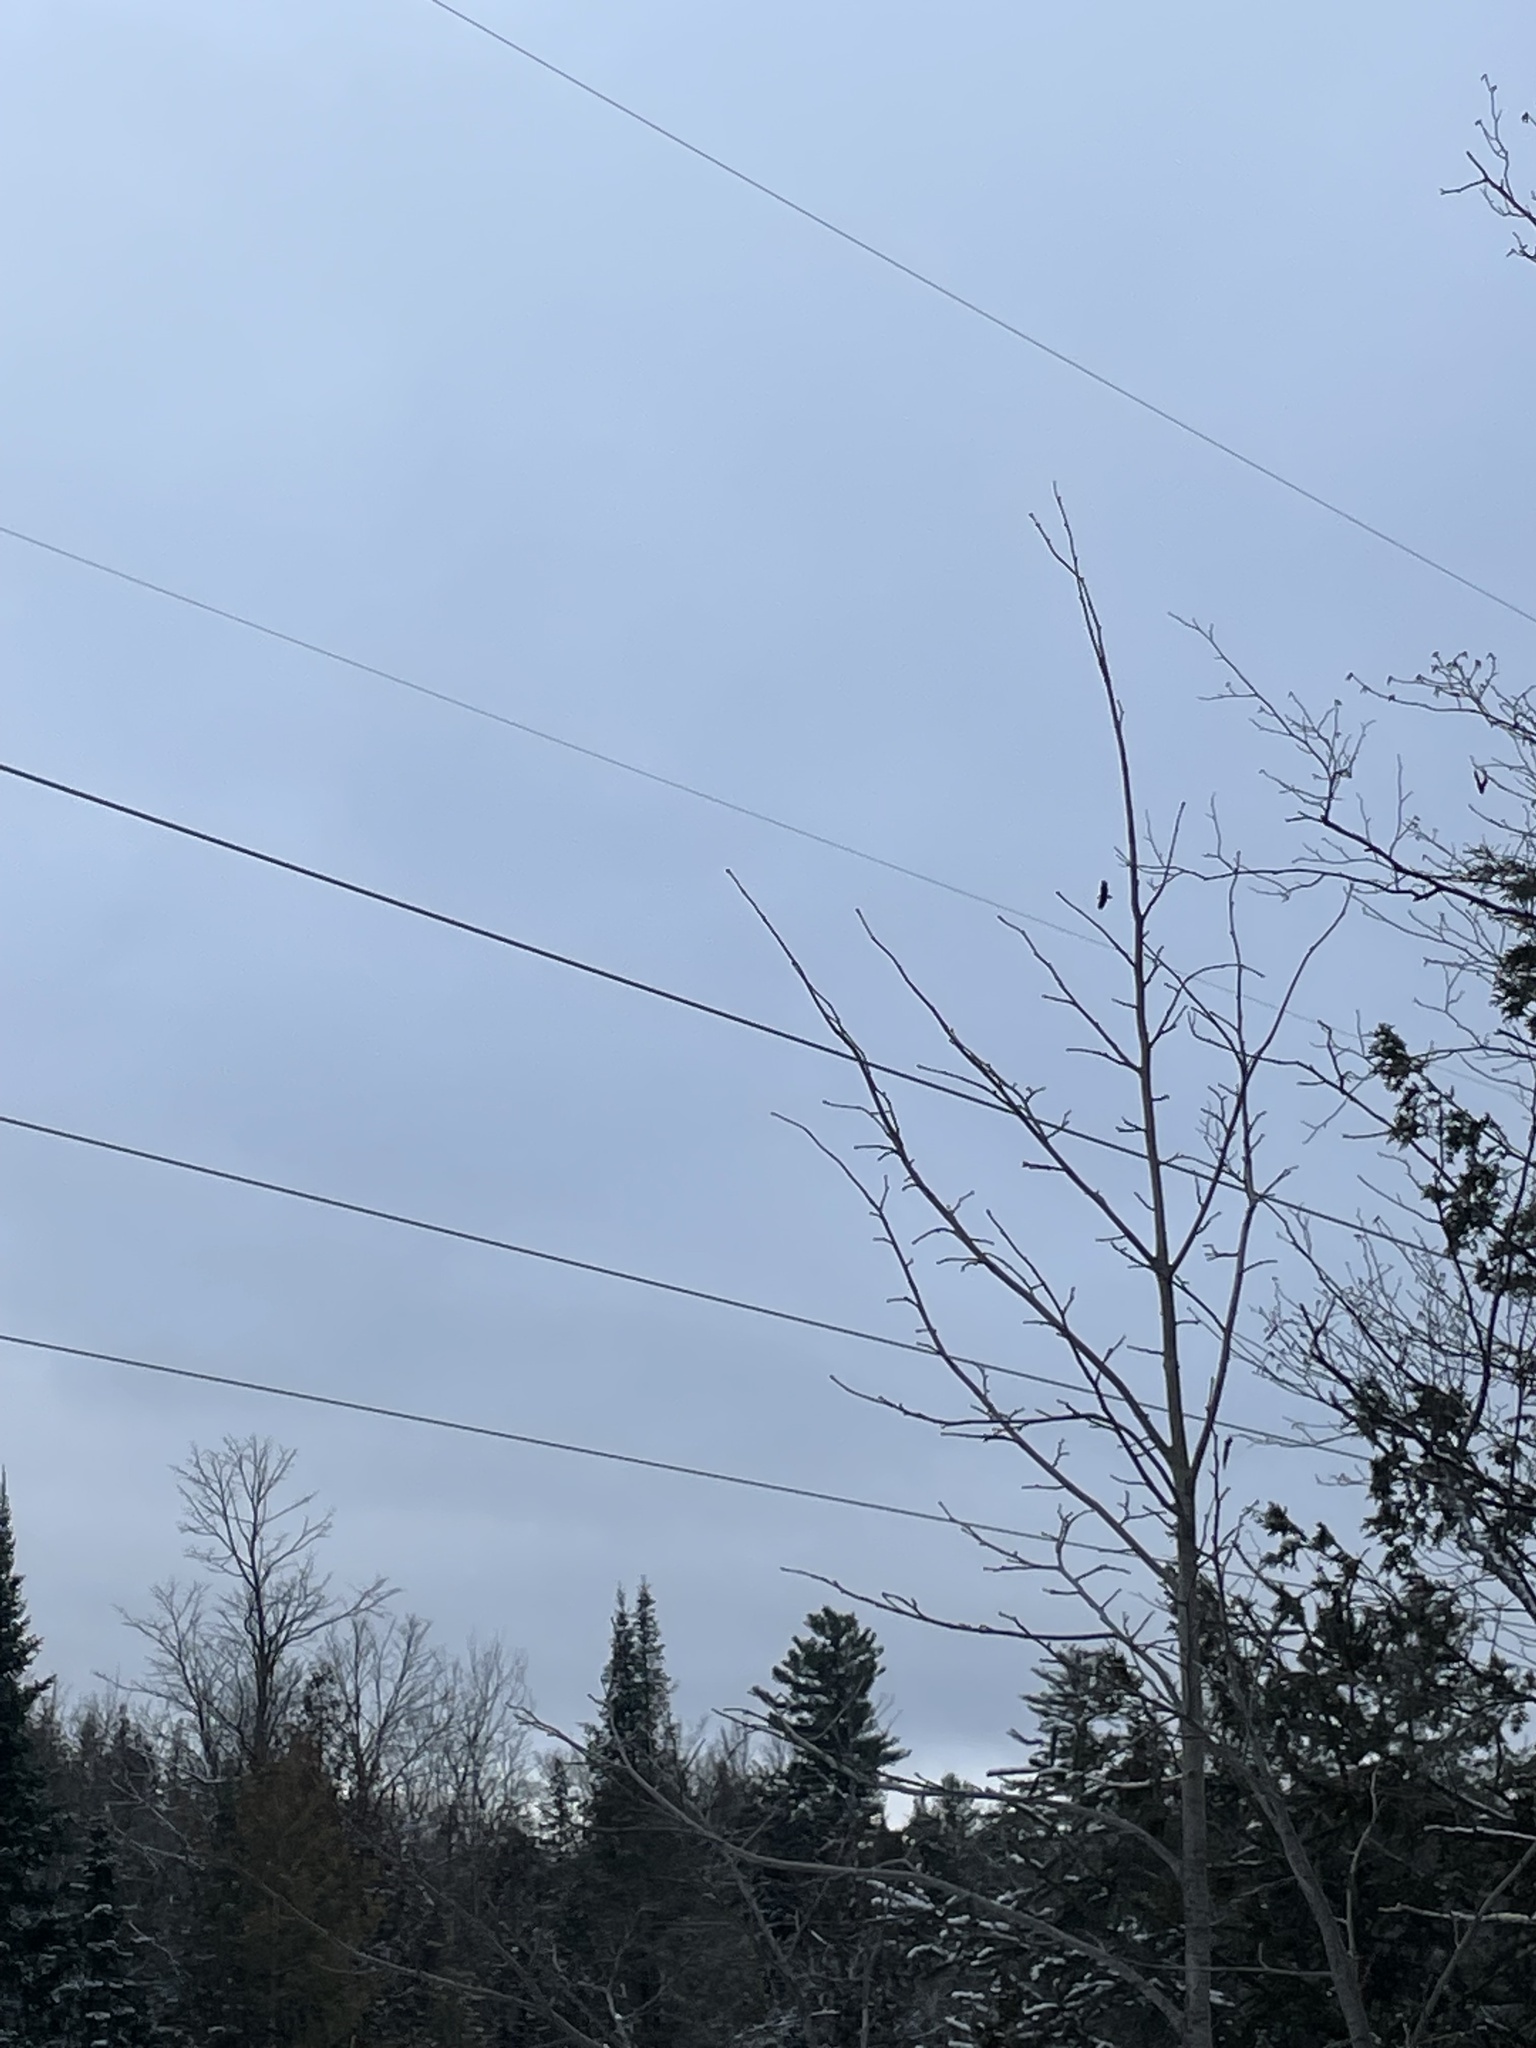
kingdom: Animalia
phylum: Chordata
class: Aves
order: Accipitriformes
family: Accipitridae
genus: Haliaeetus
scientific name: Haliaeetus leucocephalus
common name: Bald eagle
